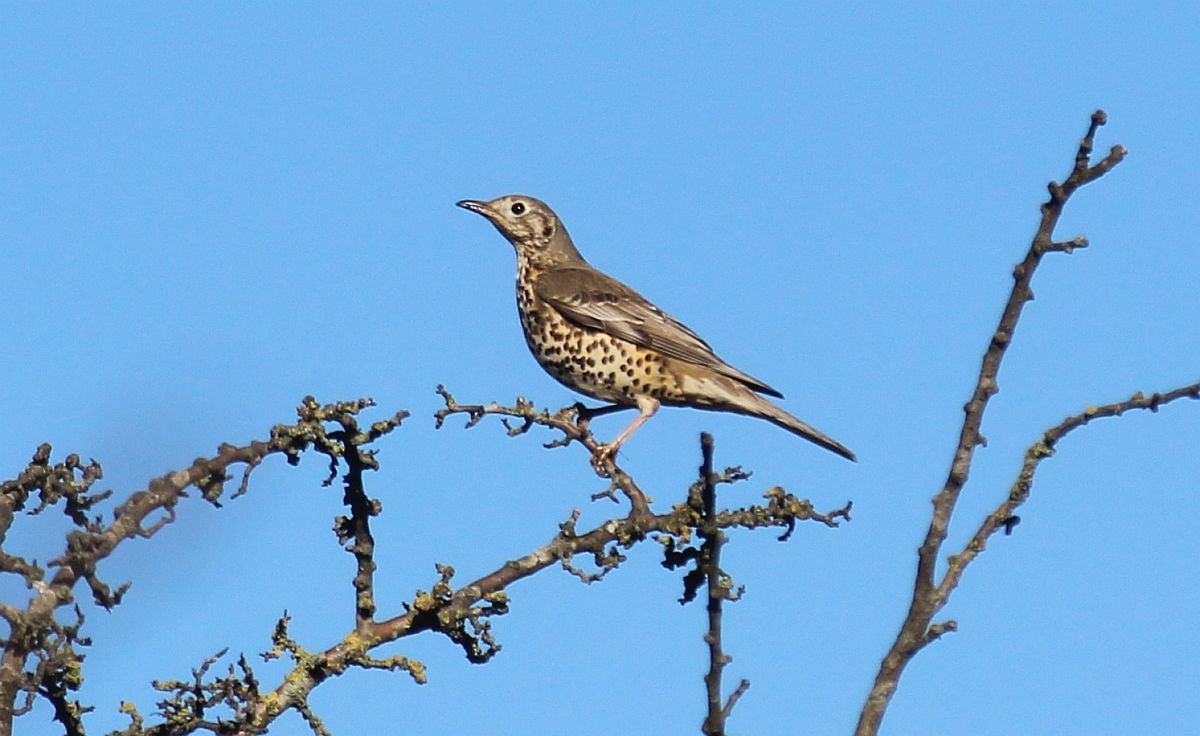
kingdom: Animalia
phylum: Chordata
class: Aves
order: Passeriformes
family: Turdidae
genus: Turdus
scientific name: Turdus viscivorus
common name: Mistle thrush
